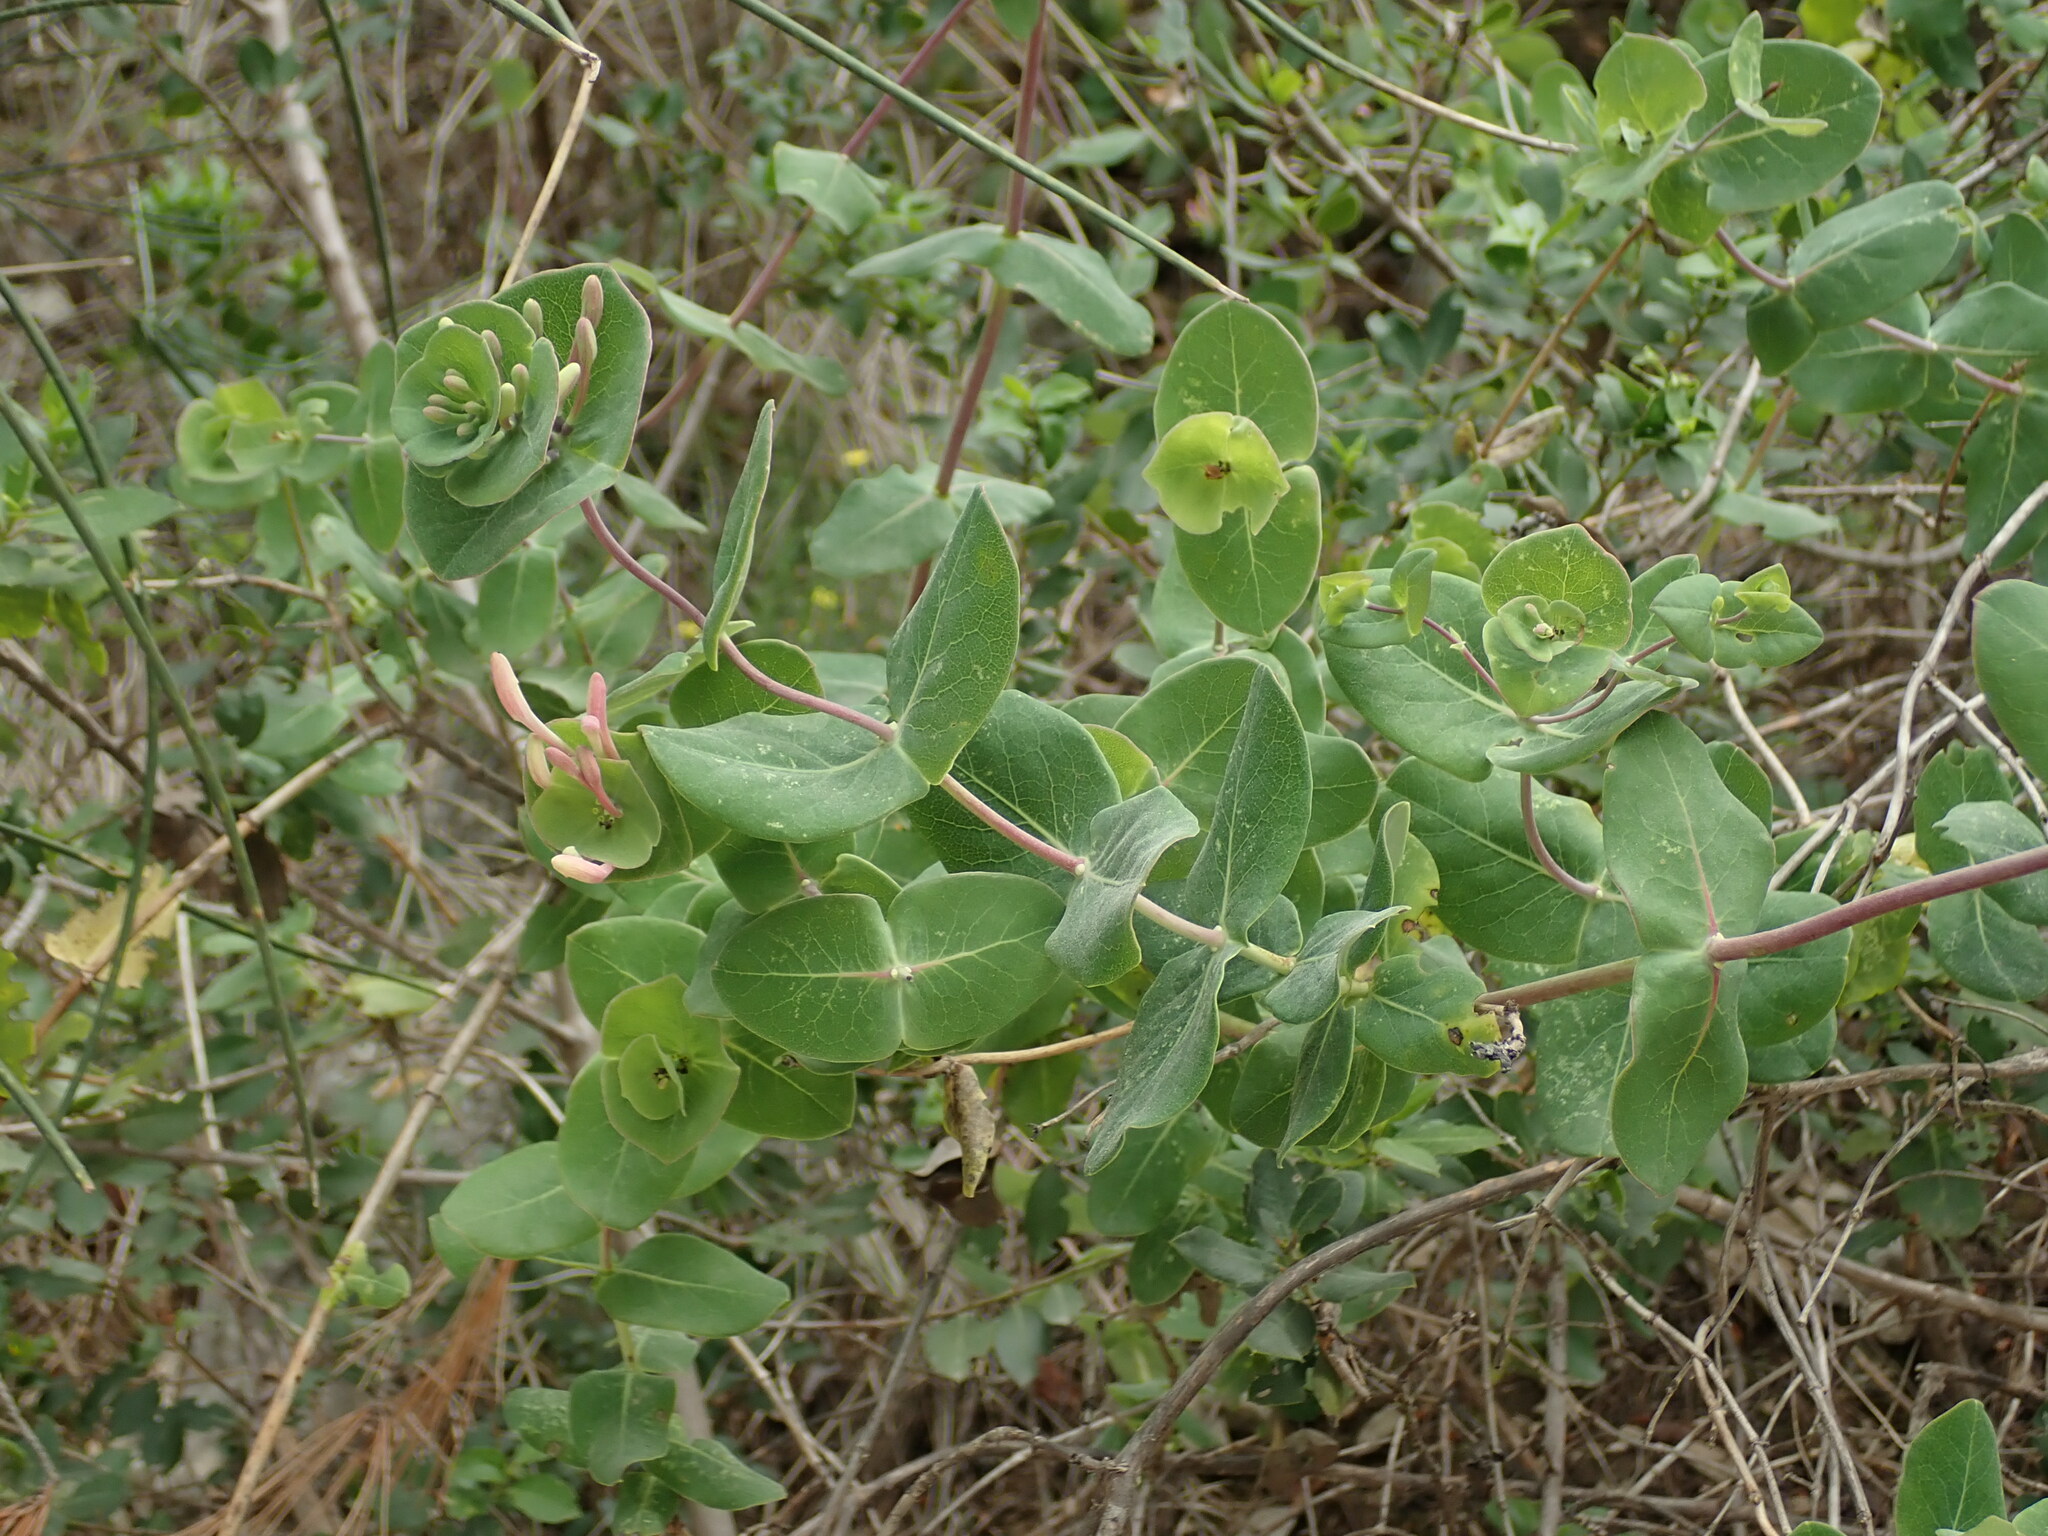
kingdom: Plantae
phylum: Tracheophyta
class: Magnoliopsida
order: Dipsacales
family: Caprifoliaceae
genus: Lonicera
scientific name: Lonicera implexa
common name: Minorca honeysuckle
